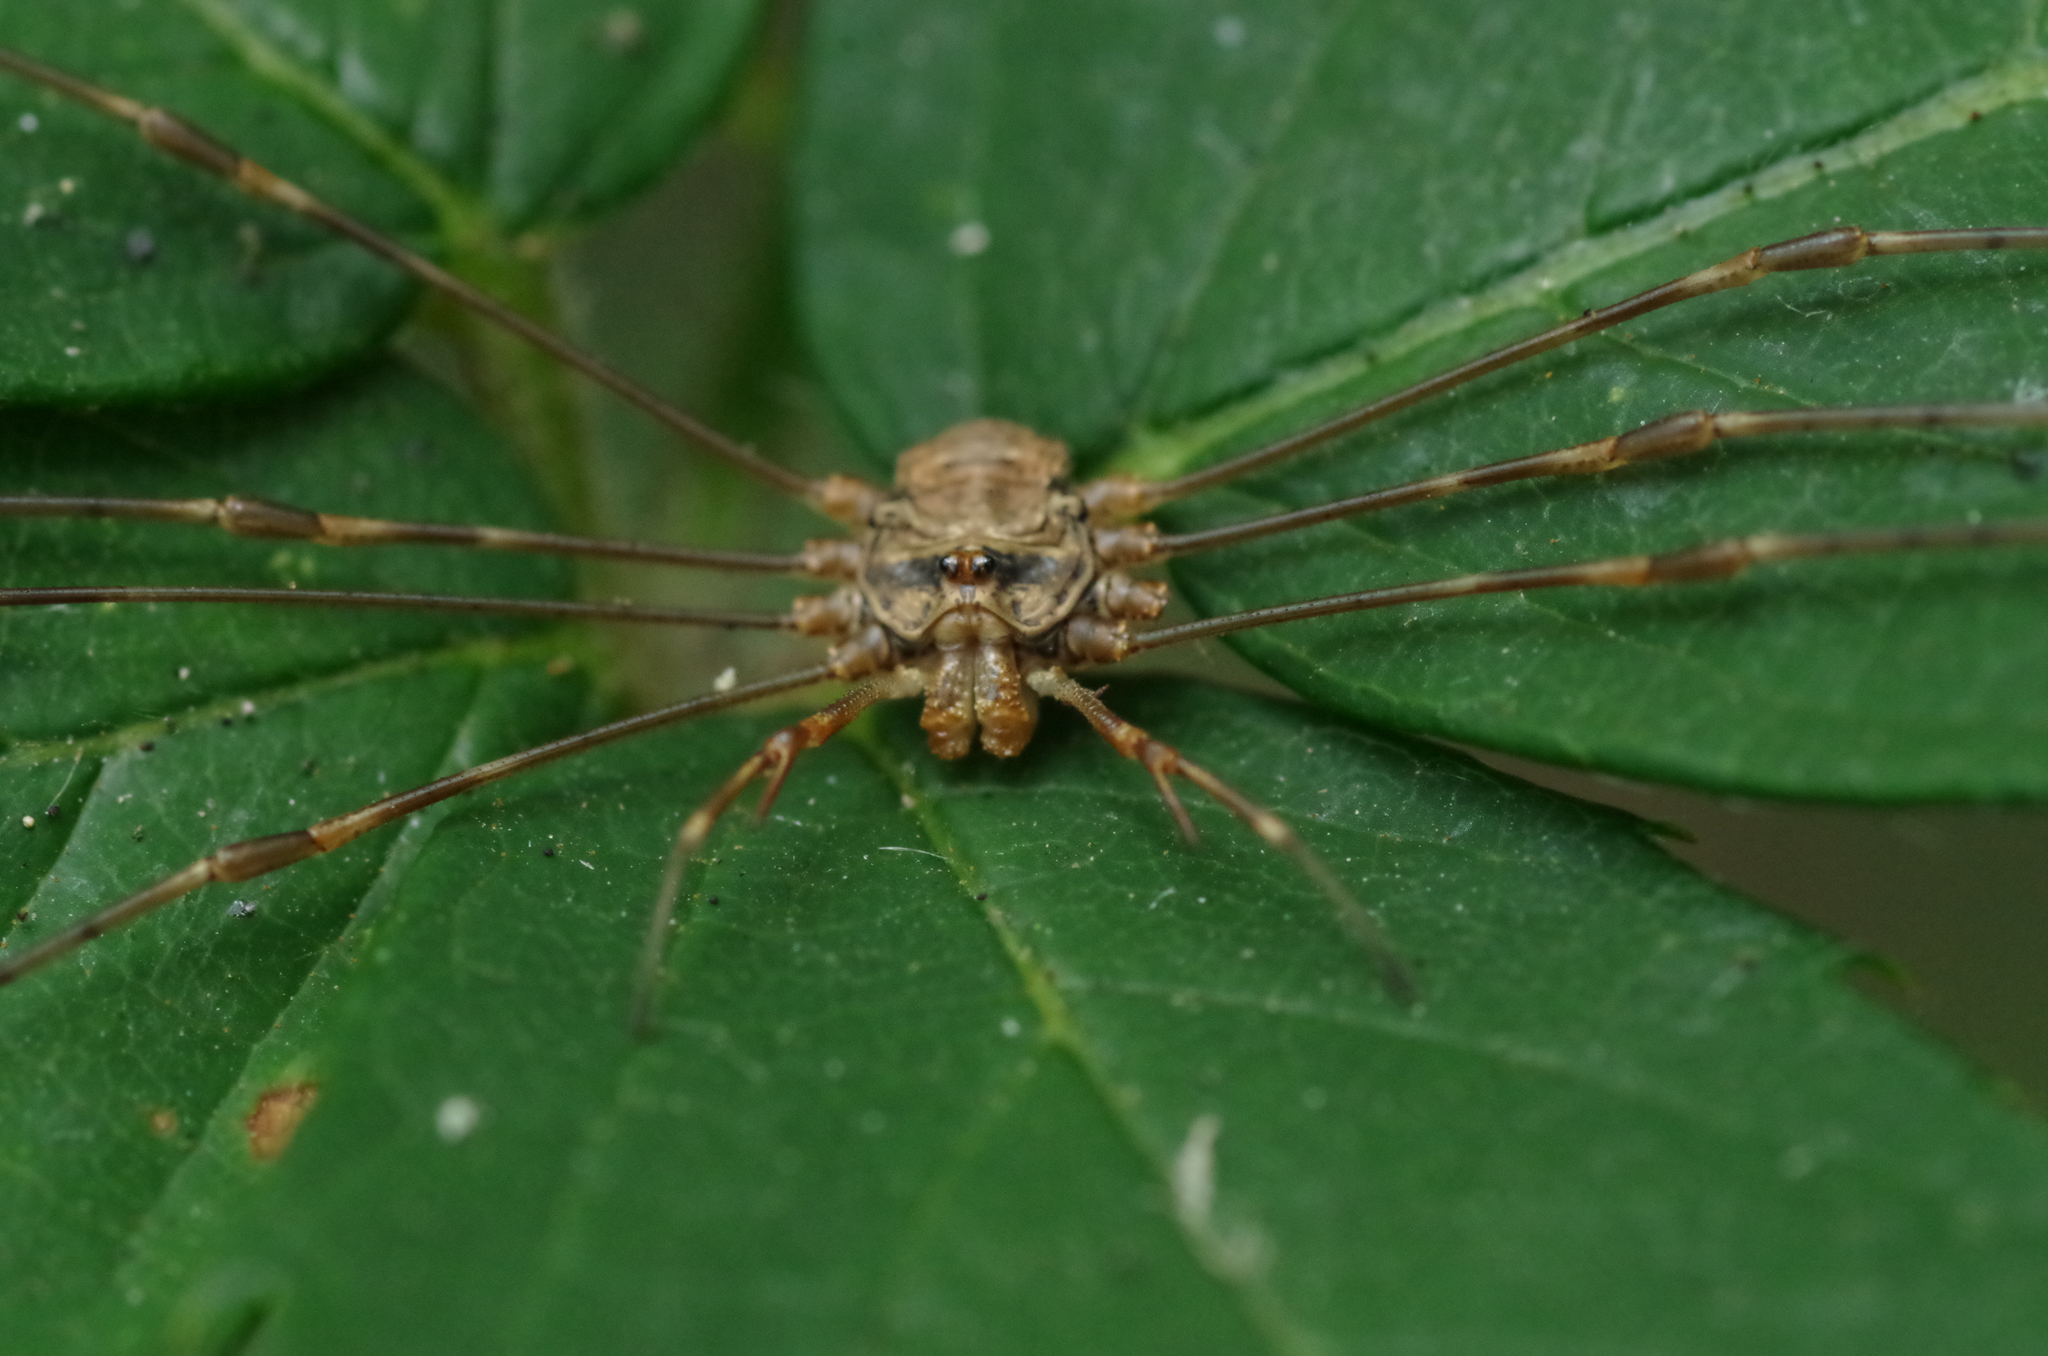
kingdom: Animalia
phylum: Arthropoda
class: Arachnida
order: Opiliones
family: Phalangiidae
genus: Dicranopalpus
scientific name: Dicranopalpus ramosus
